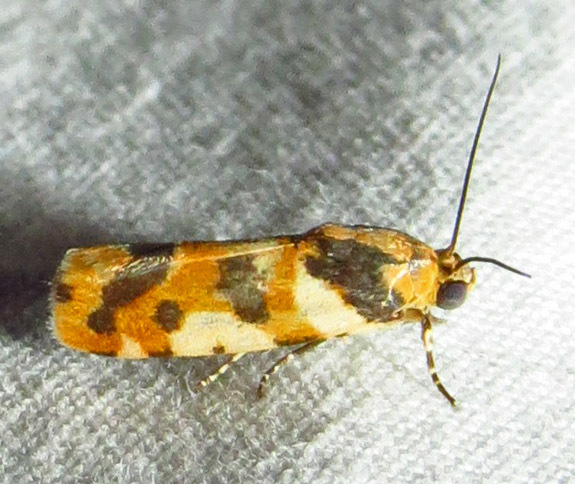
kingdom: Animalia
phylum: Arthropoda
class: Insecta
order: Lepidoptera
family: Noctuidae
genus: Acontia
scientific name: Acontia dama
